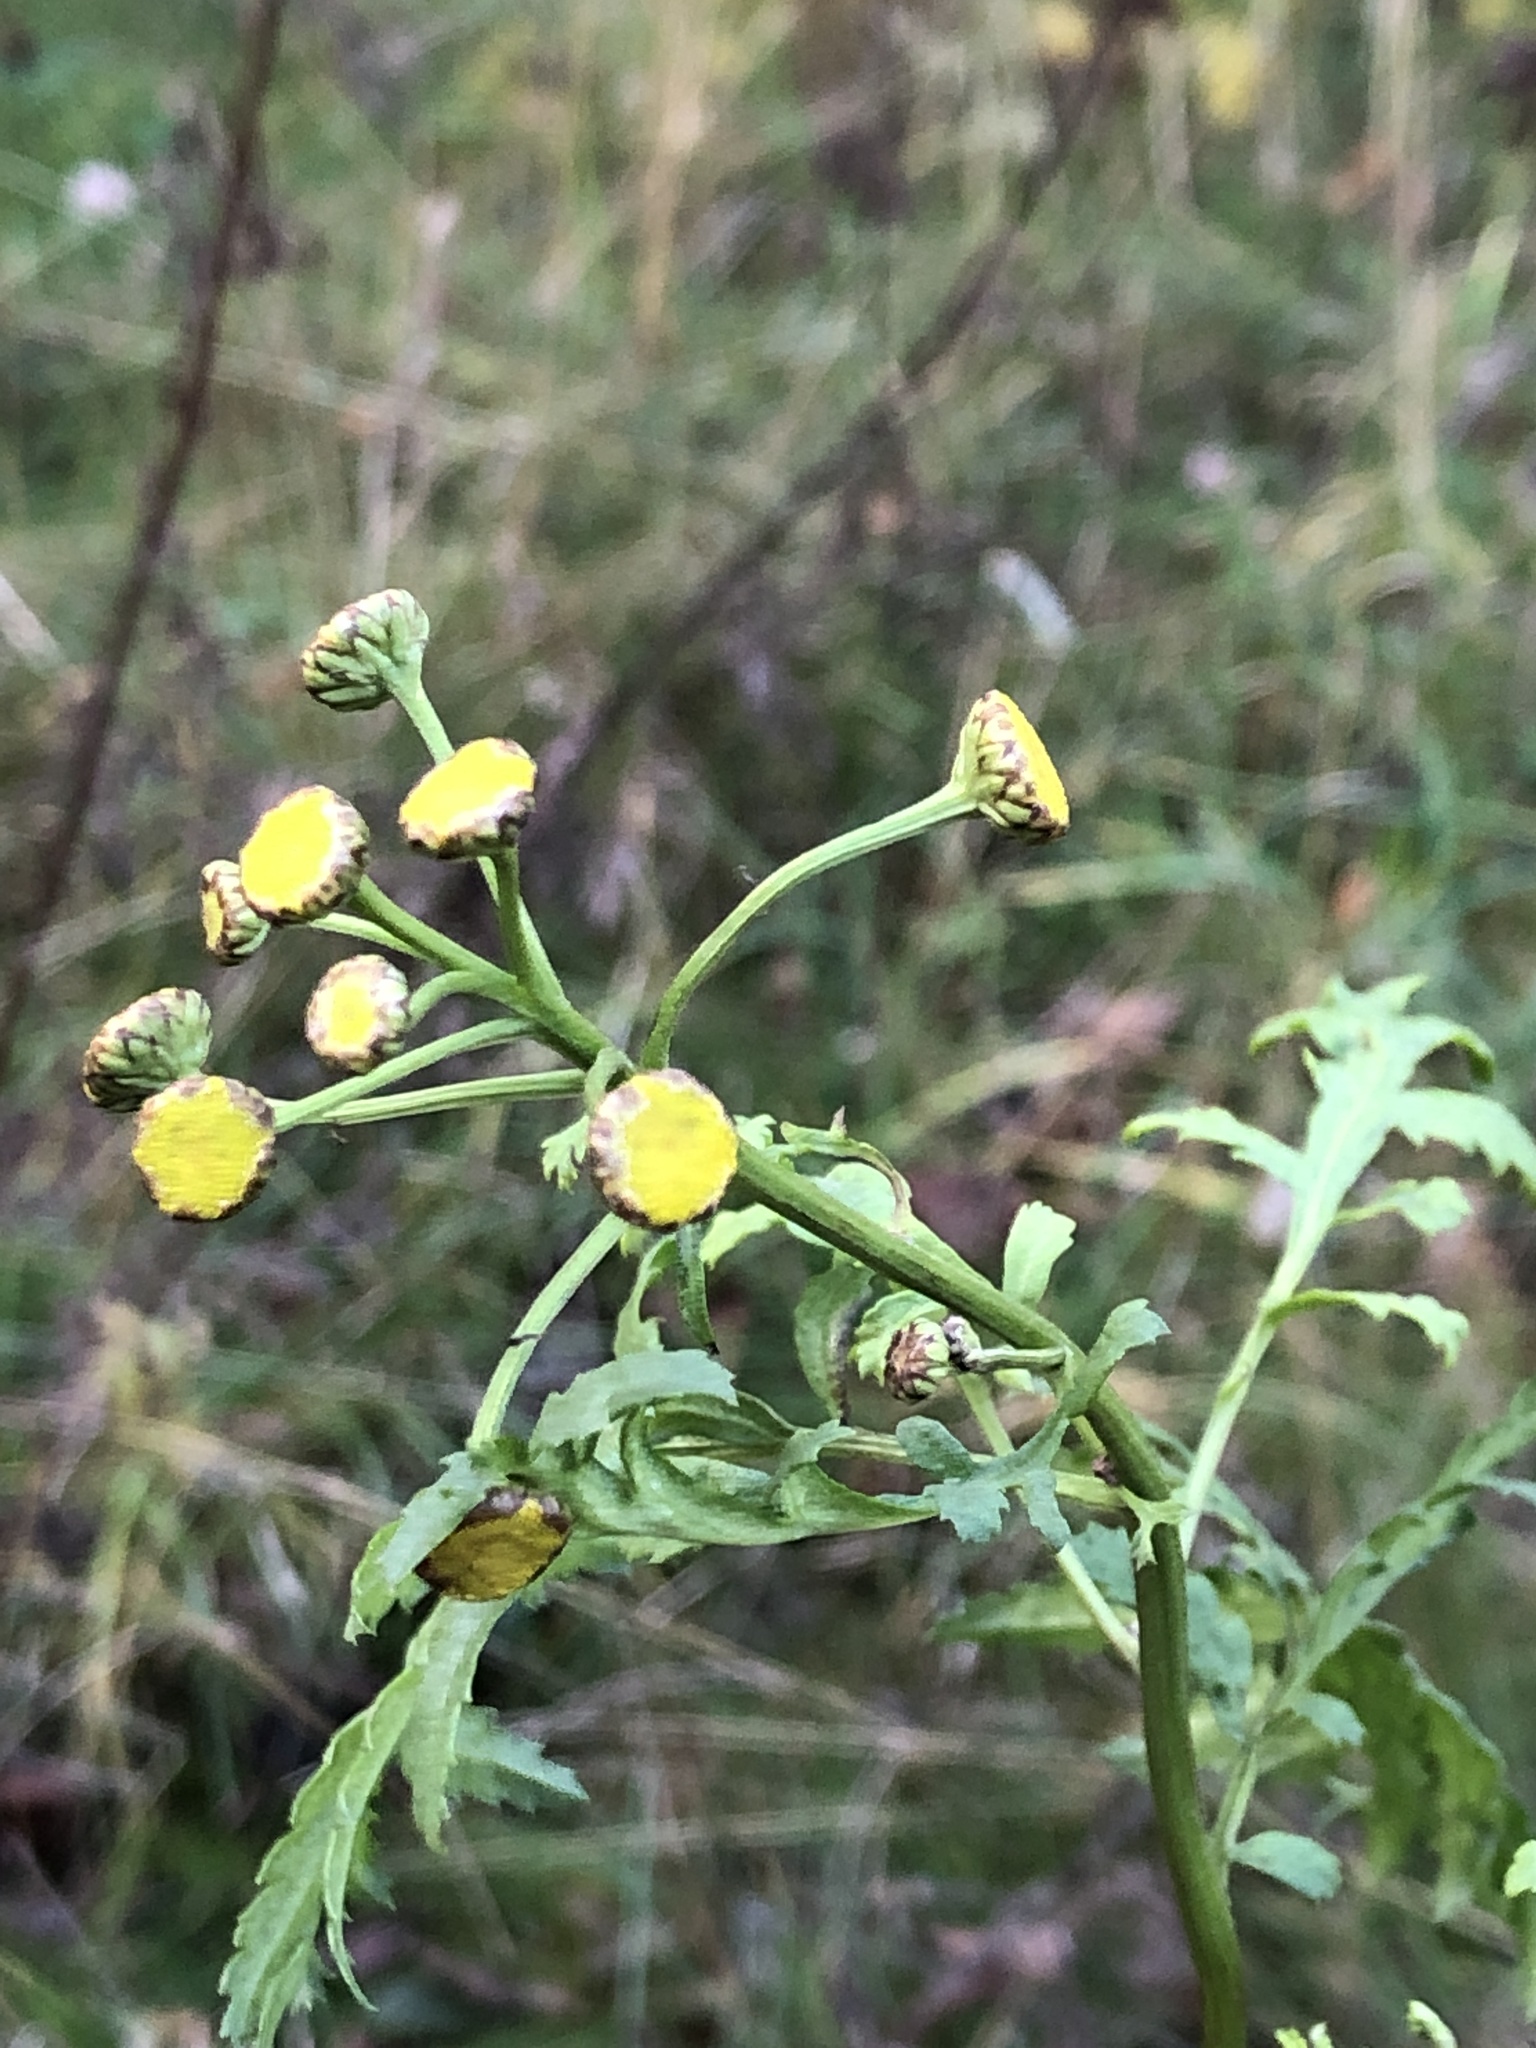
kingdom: Plantae
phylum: Tracheophyta
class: Magnoliopsida
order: Asterales
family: Asteraceae
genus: Tanacetum
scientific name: Tanacetum vulgare
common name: Common tansy
